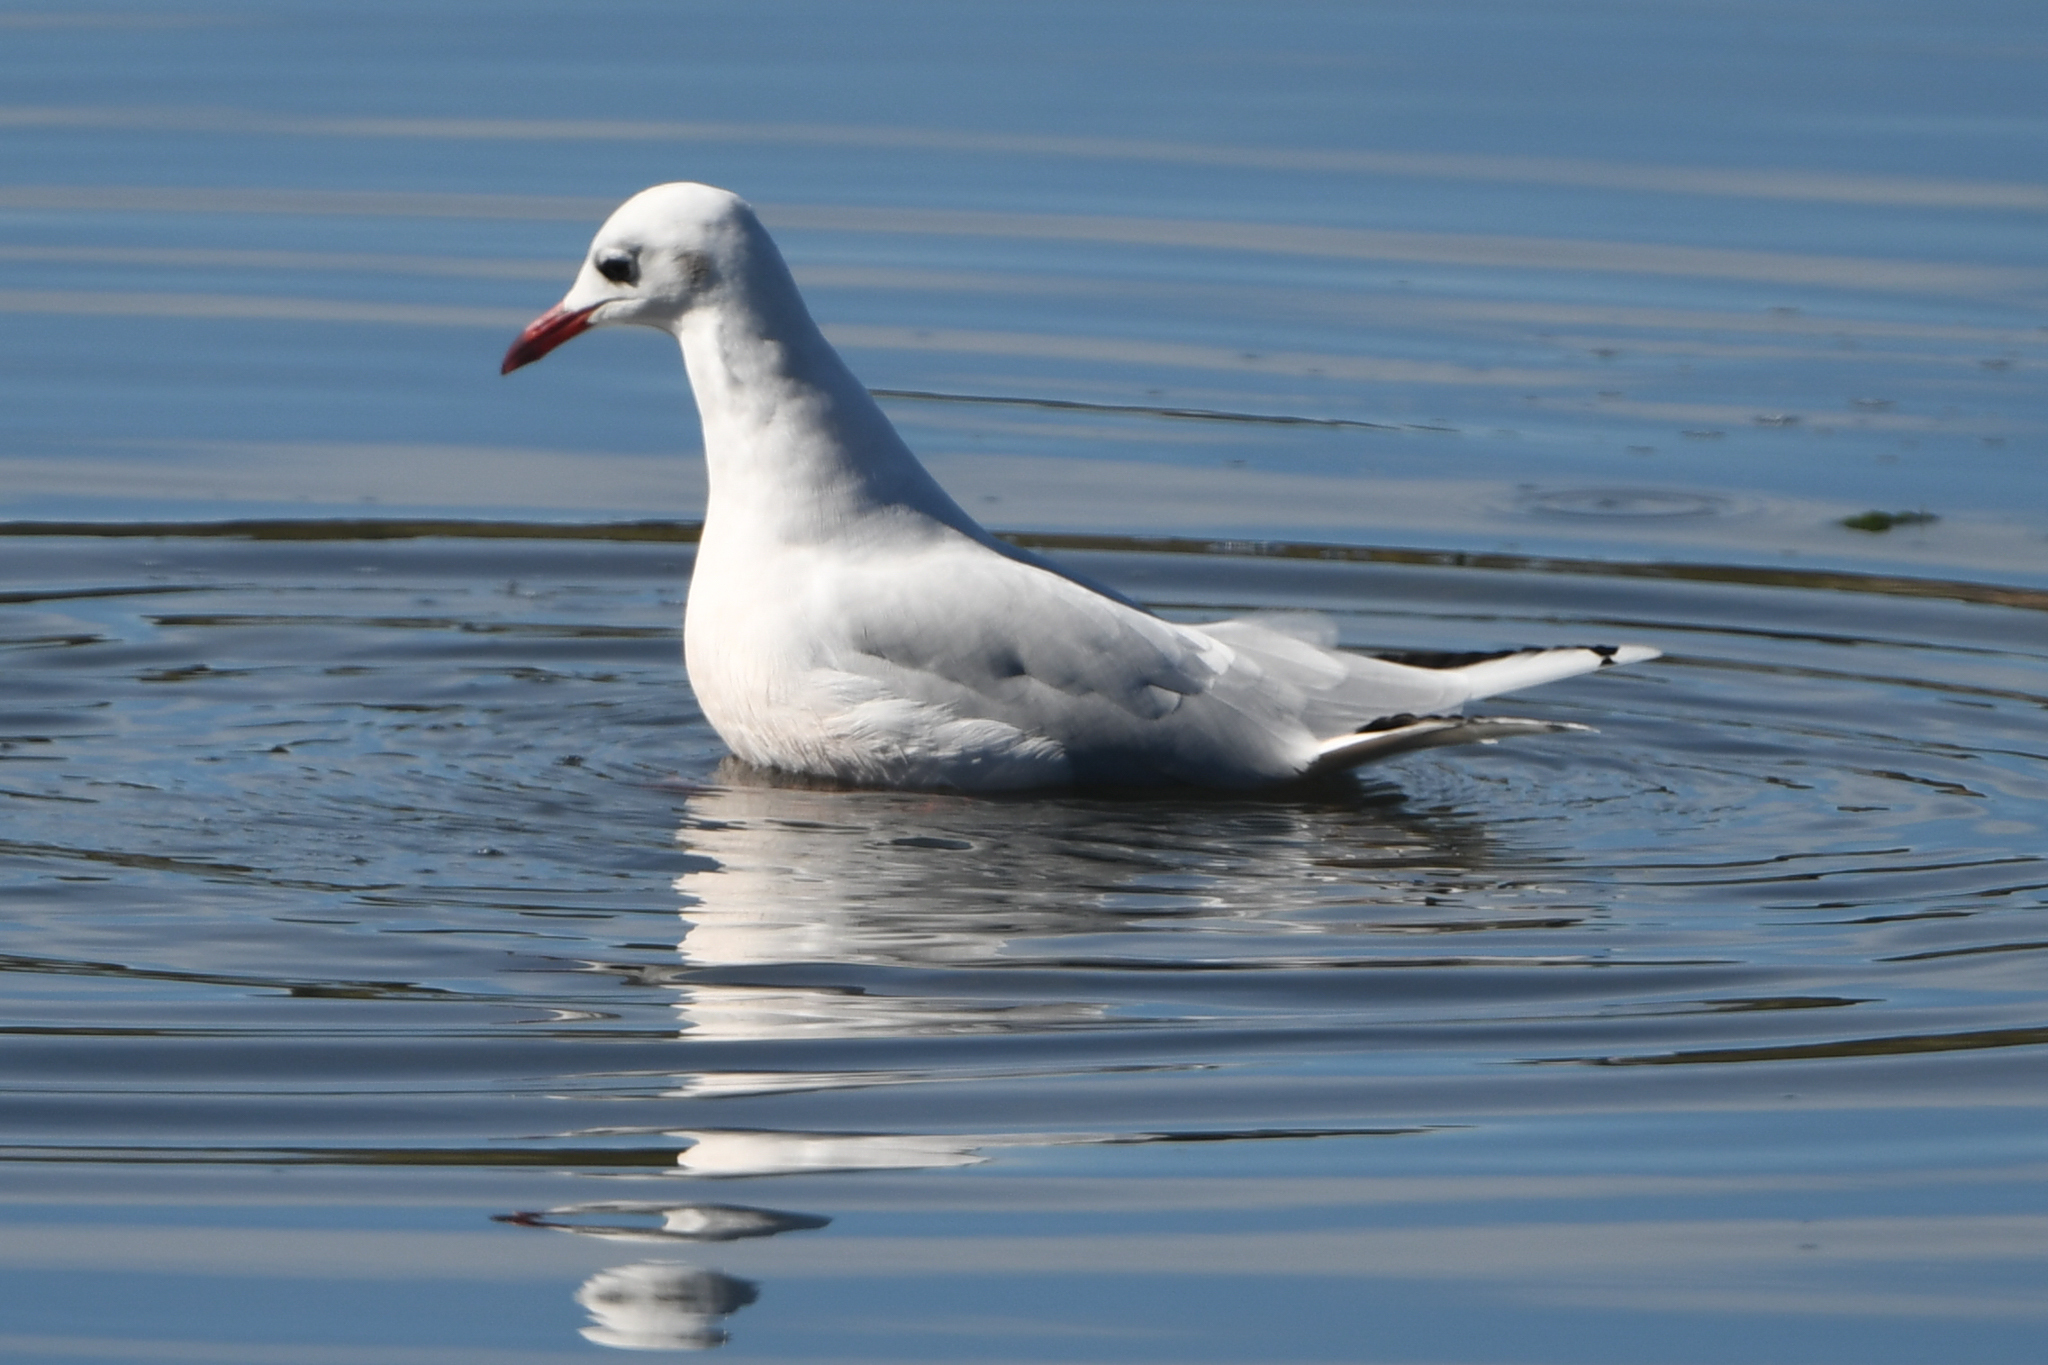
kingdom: Animalia
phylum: Chordata
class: Aves
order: Charadriiformes
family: Laridae
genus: Chroicocephalus
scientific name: Chroicocephalus maculipennis
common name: Brown-hooded gull
